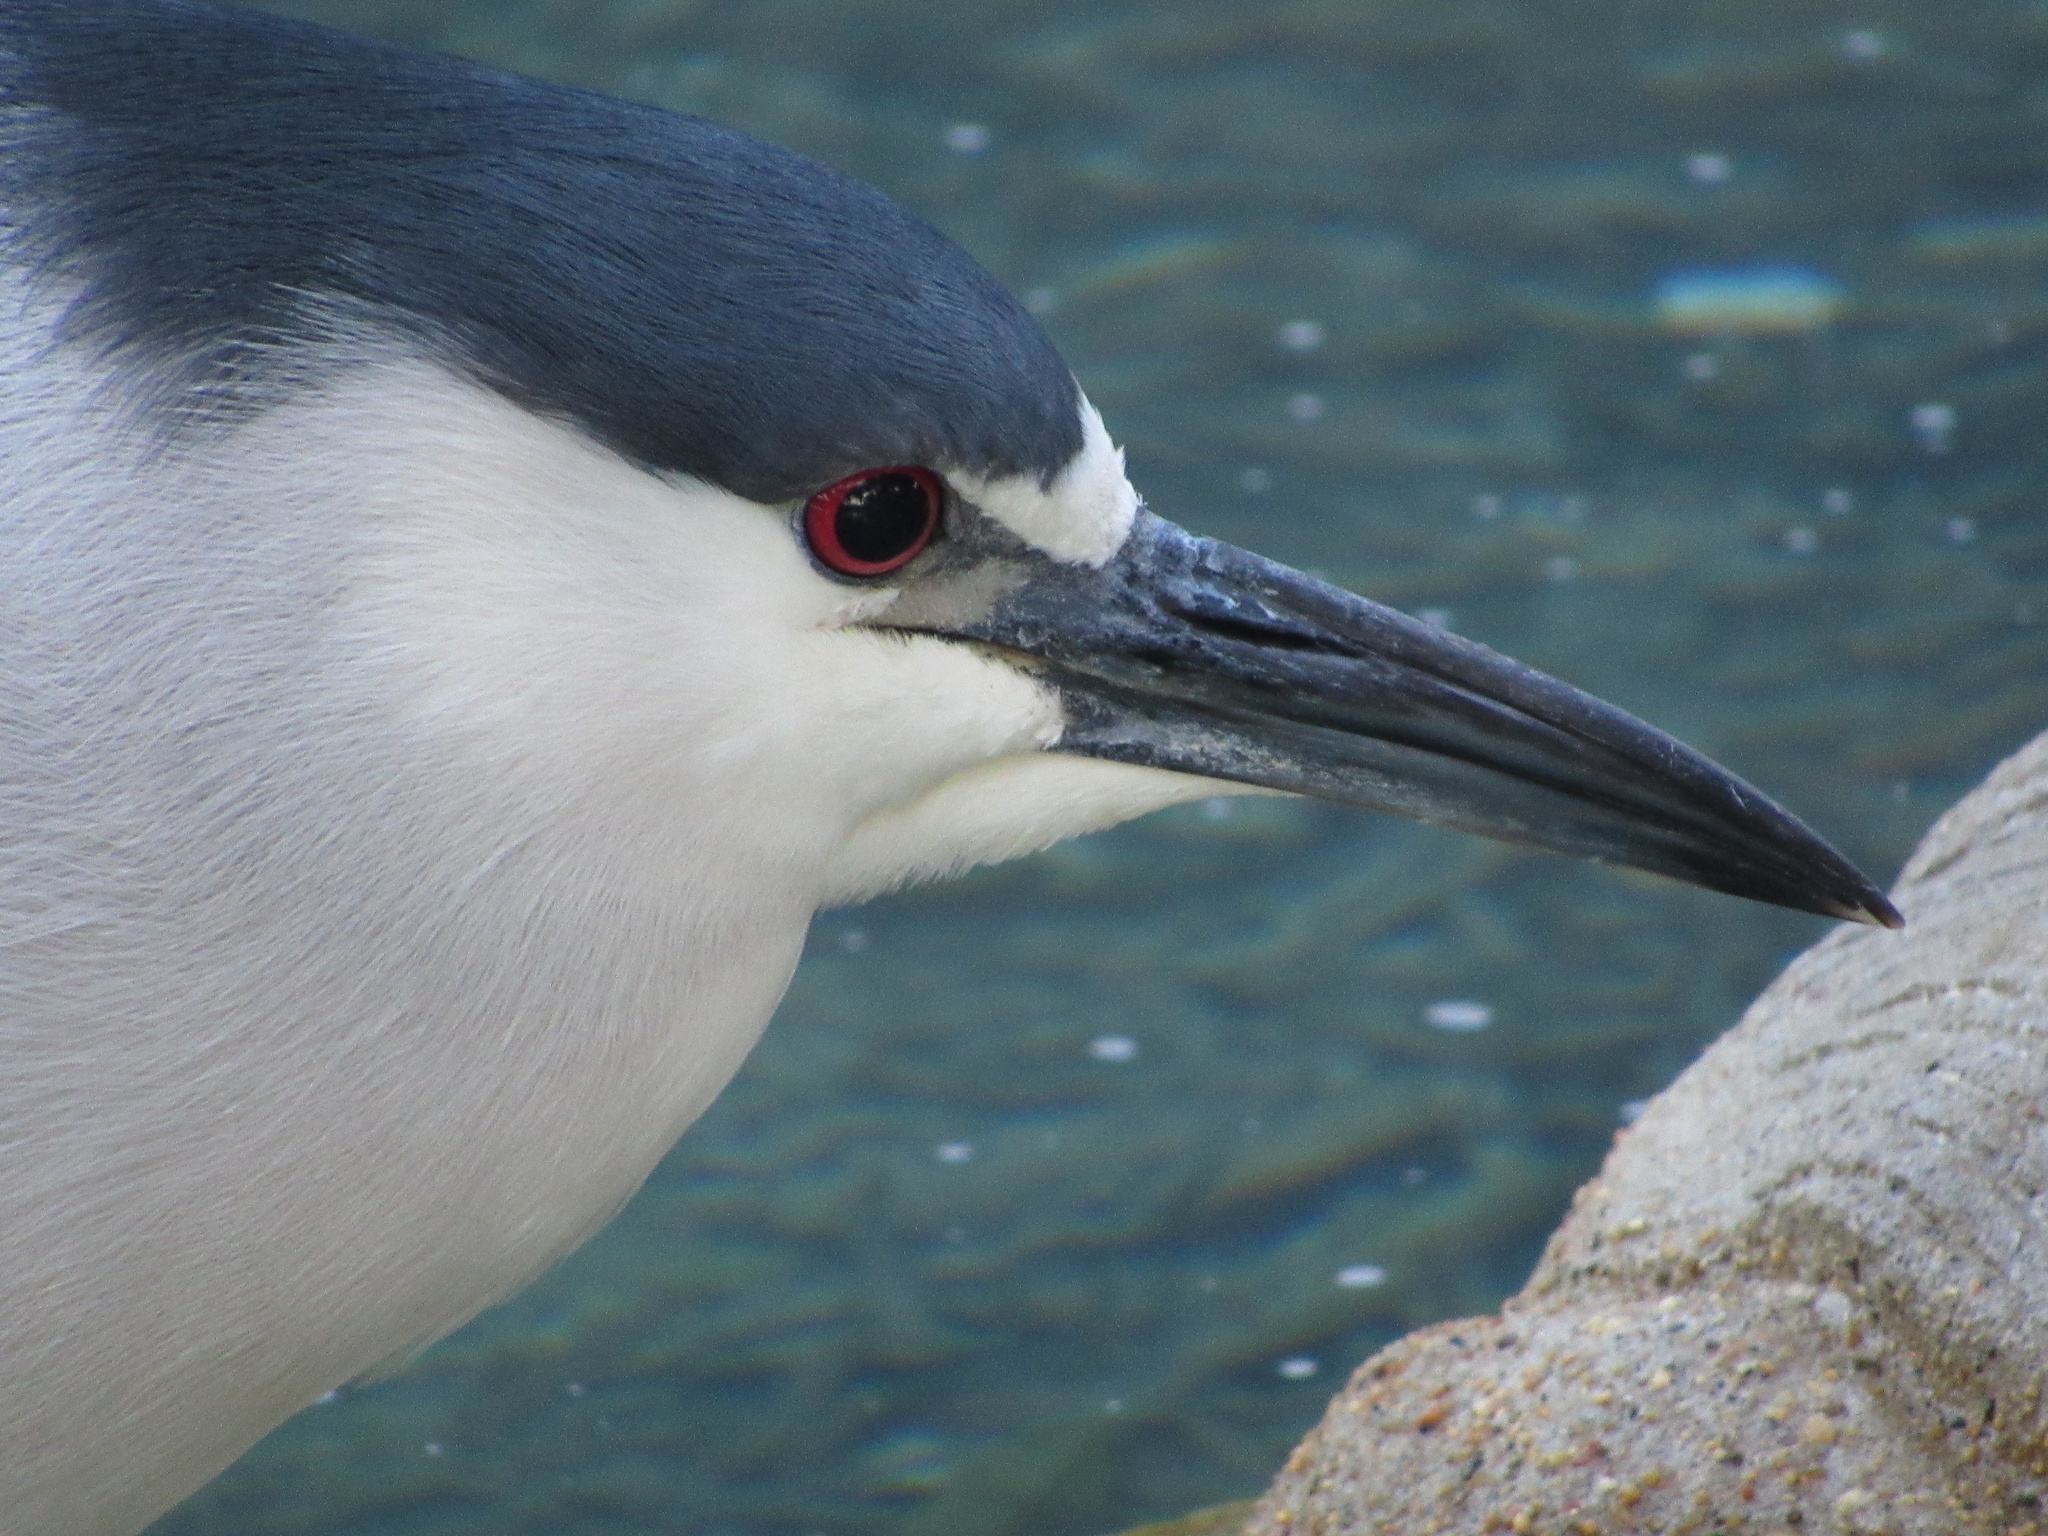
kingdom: Animalia
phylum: Chordata
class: Aves
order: Pelecaniformes
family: Ardeidae
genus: Nycticorax
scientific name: Nycticorax nycticorax
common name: Black-crowned night heron
